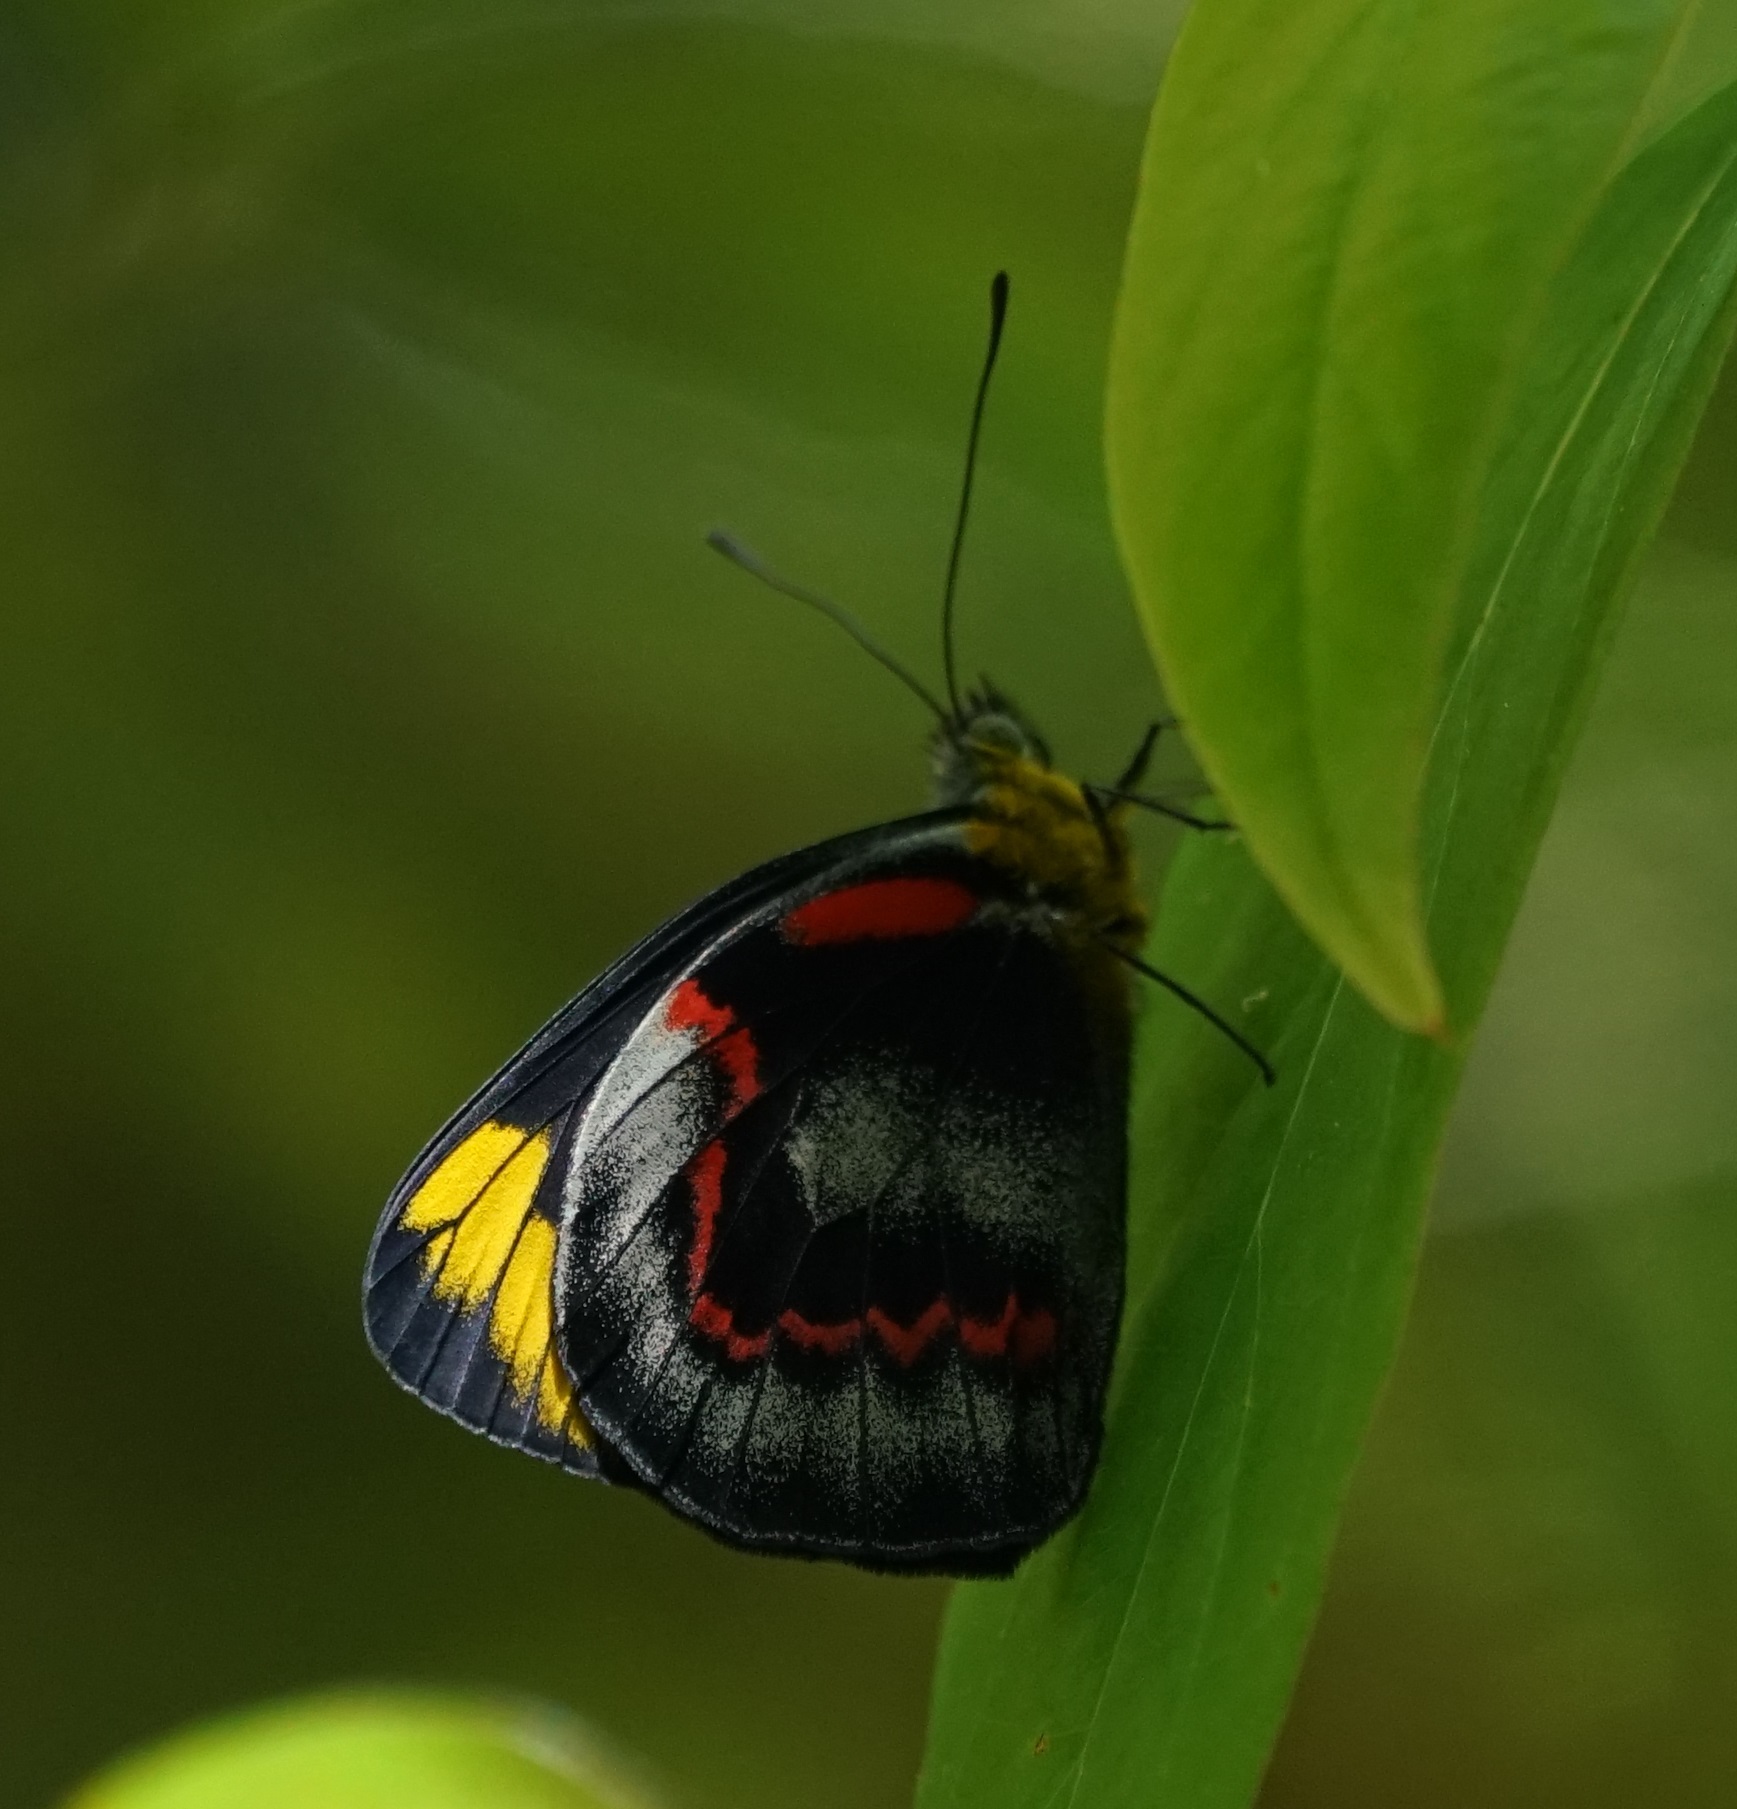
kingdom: Animalia
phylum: Arthropoda
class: Insecta
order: Lepidoptera
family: Pieridae
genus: Delias
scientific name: Delias nigrina
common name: Black jezebel
